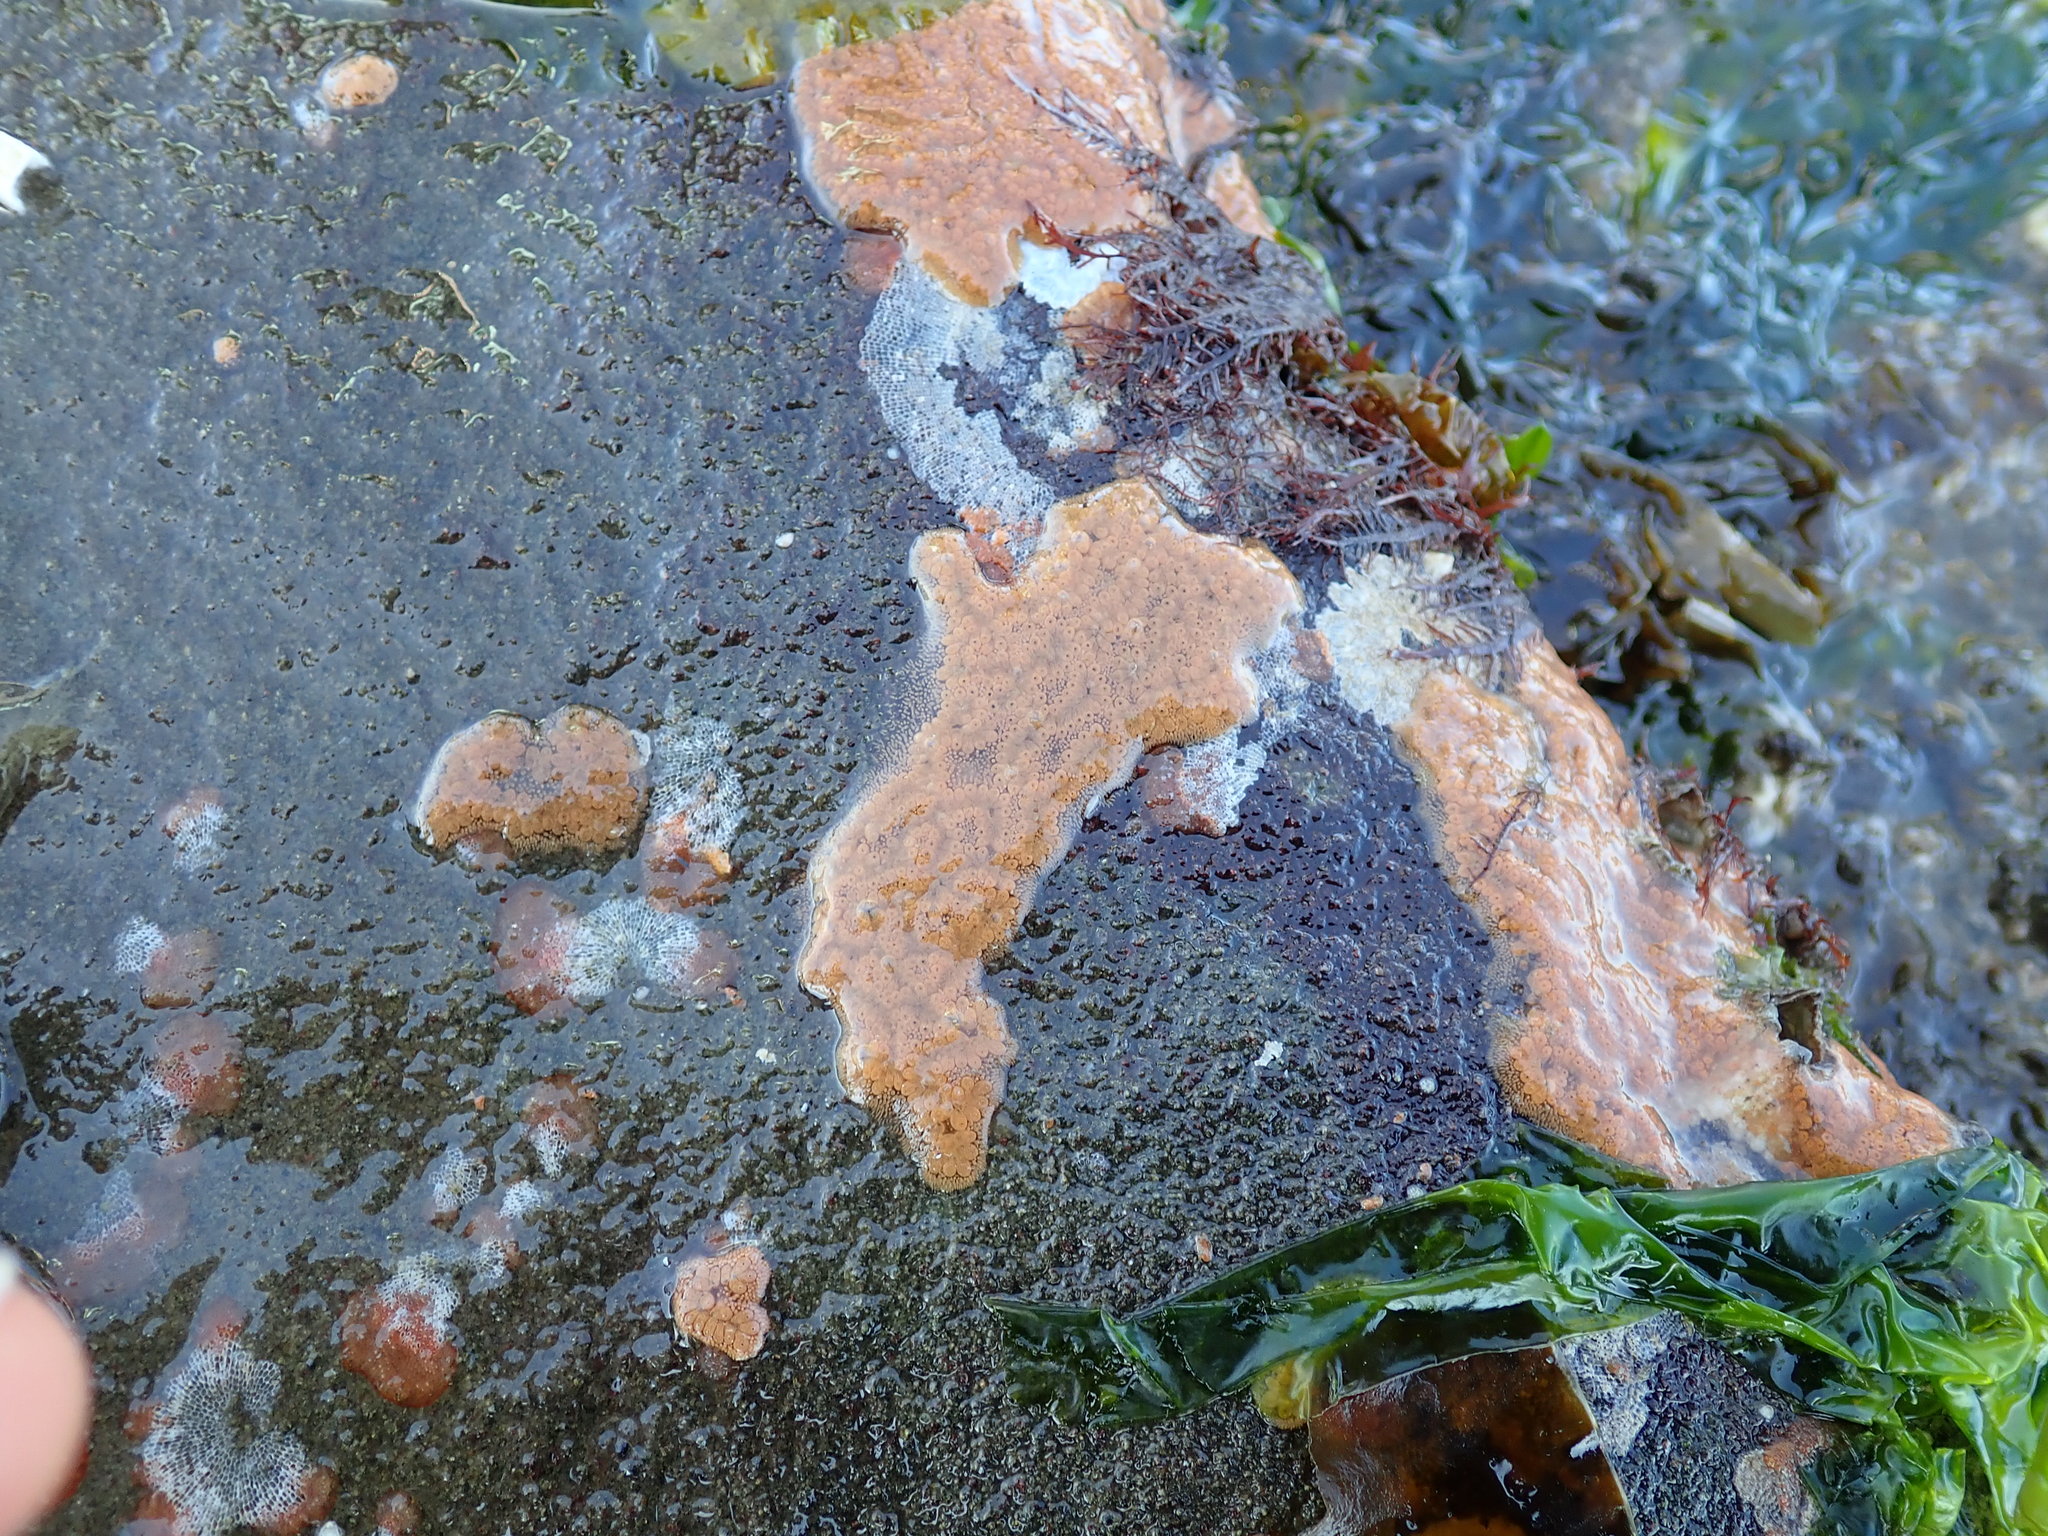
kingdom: Animalia
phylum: Chordata
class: Ascidiacea
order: Stolidobranchia
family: Styelidae
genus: Botrylloides
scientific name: Botrylloides violaceus
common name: Colonial sea squirt
